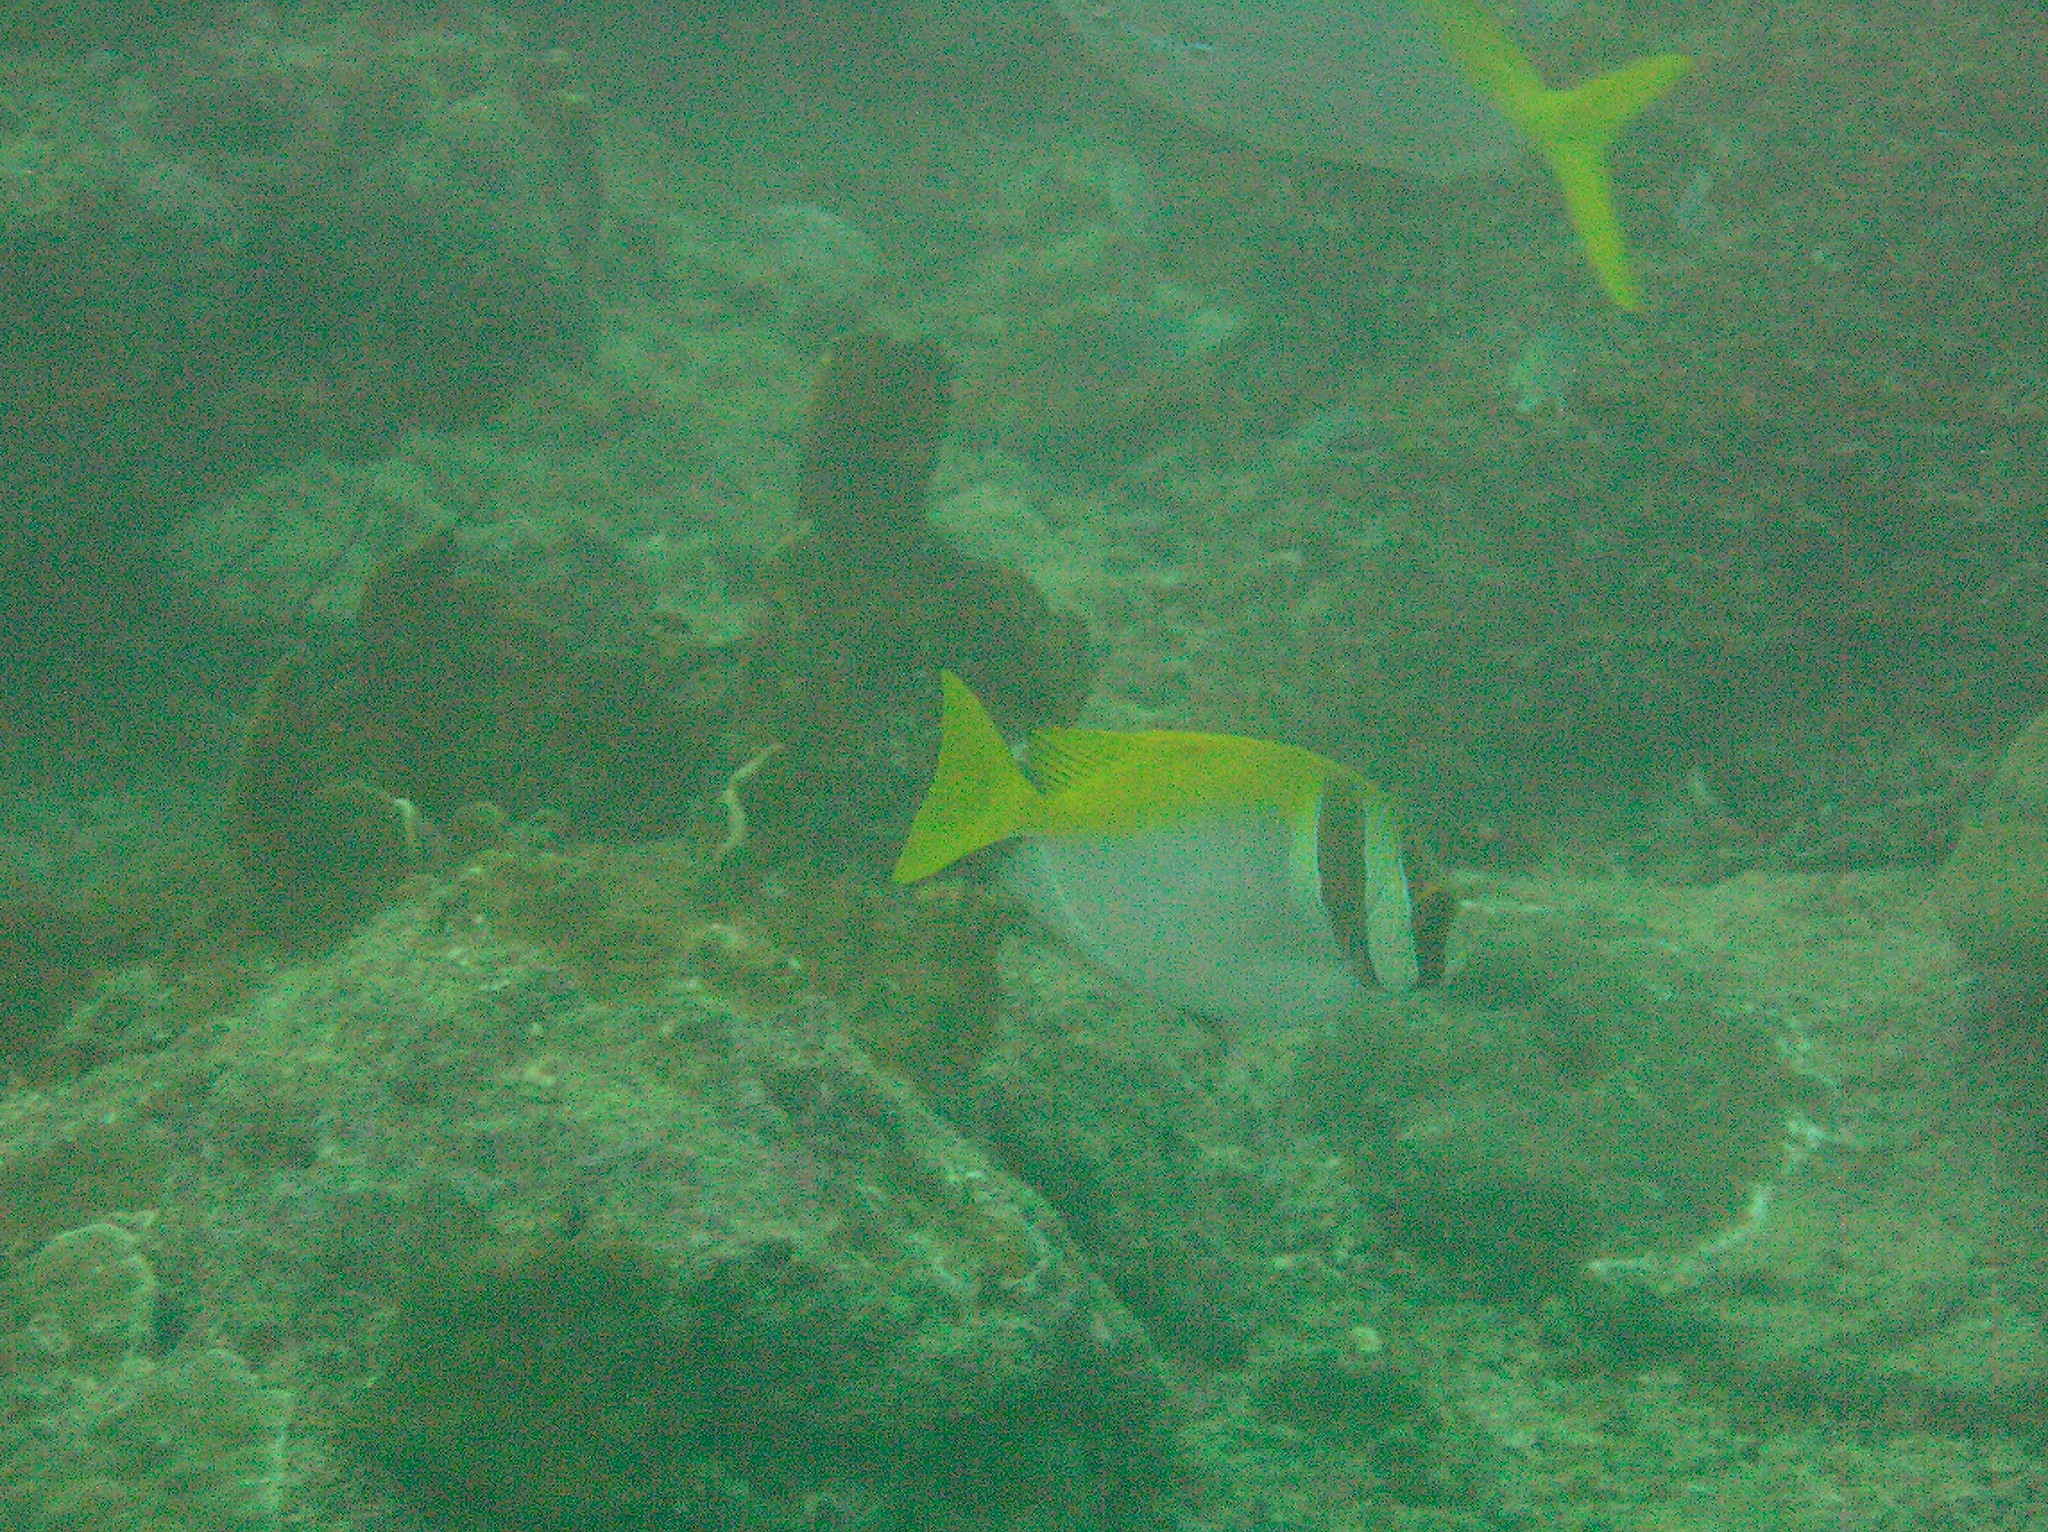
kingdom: Animalia
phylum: Chordata
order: Perciformes
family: Siganidae
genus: Siganus
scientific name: Siganus virgatus
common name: Barhead spinefoot
